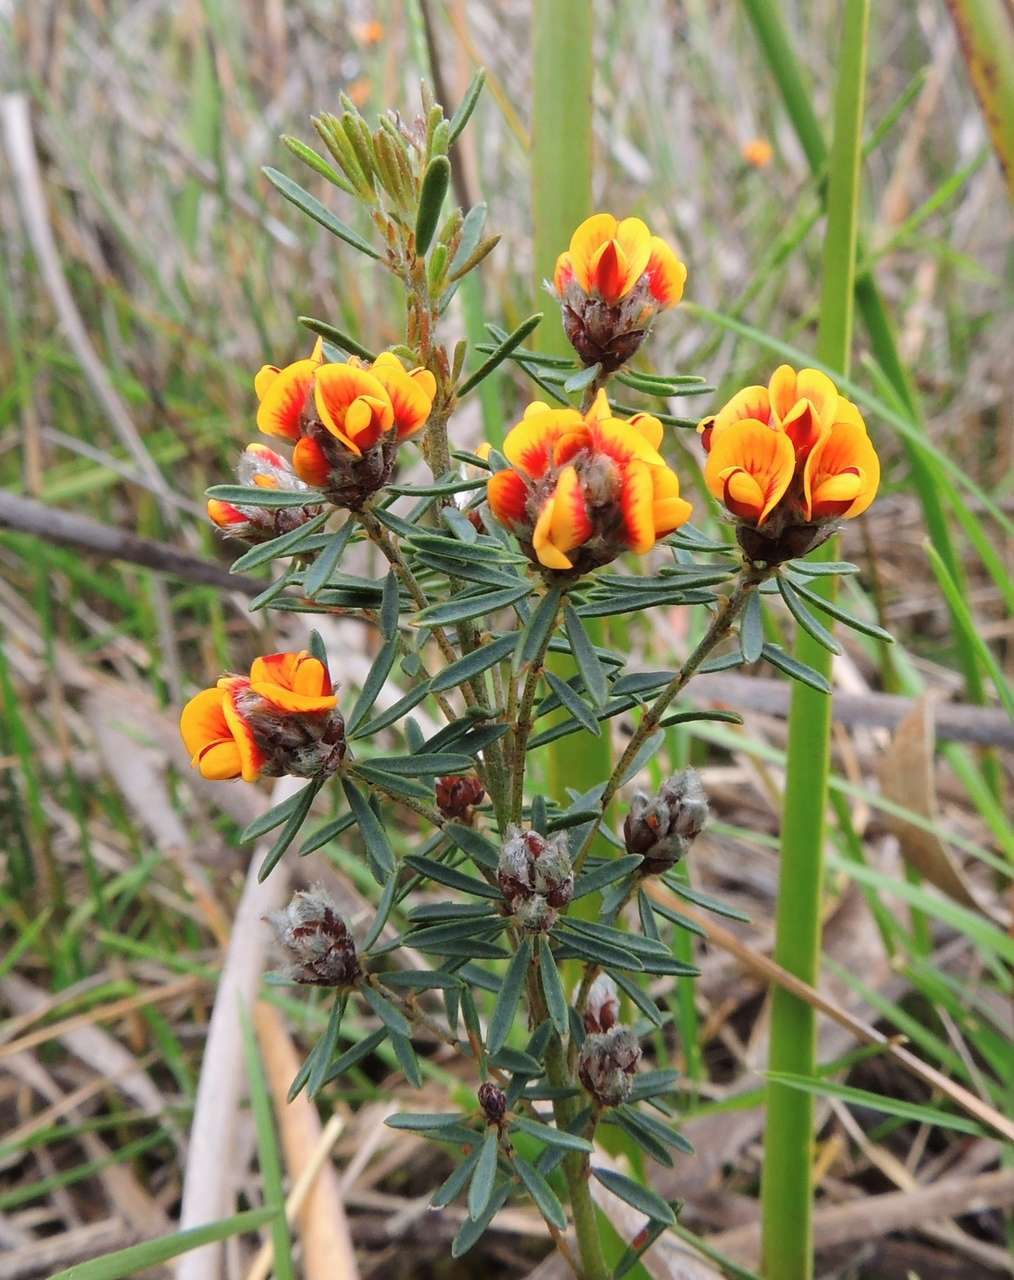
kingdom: Plantae
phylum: Tracheophyta
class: Magnoliopsida
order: Fabales
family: Fabaceae
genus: Pultenaea
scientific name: Pultenaea dentata
